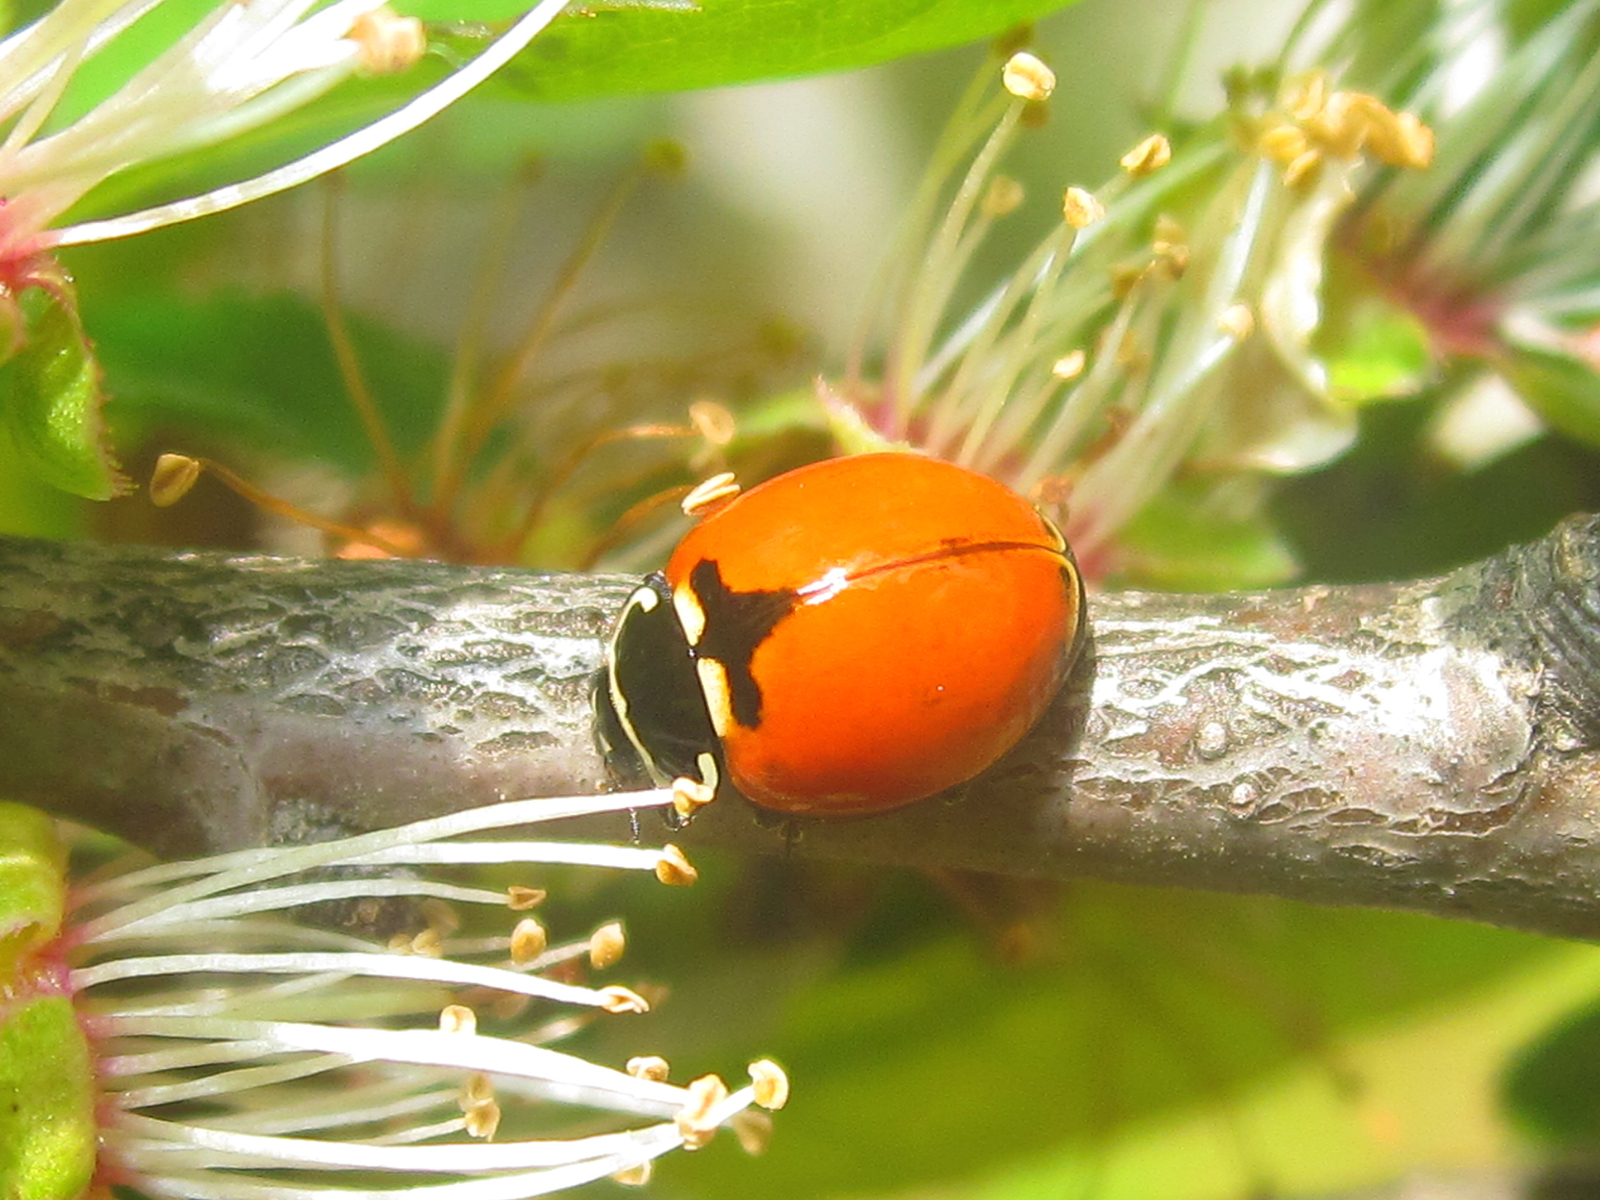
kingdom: Animalia
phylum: Arthropoda
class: Insecta
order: Coleoptera
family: Coccinellidae
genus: Adalia
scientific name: Adalia deficiens
